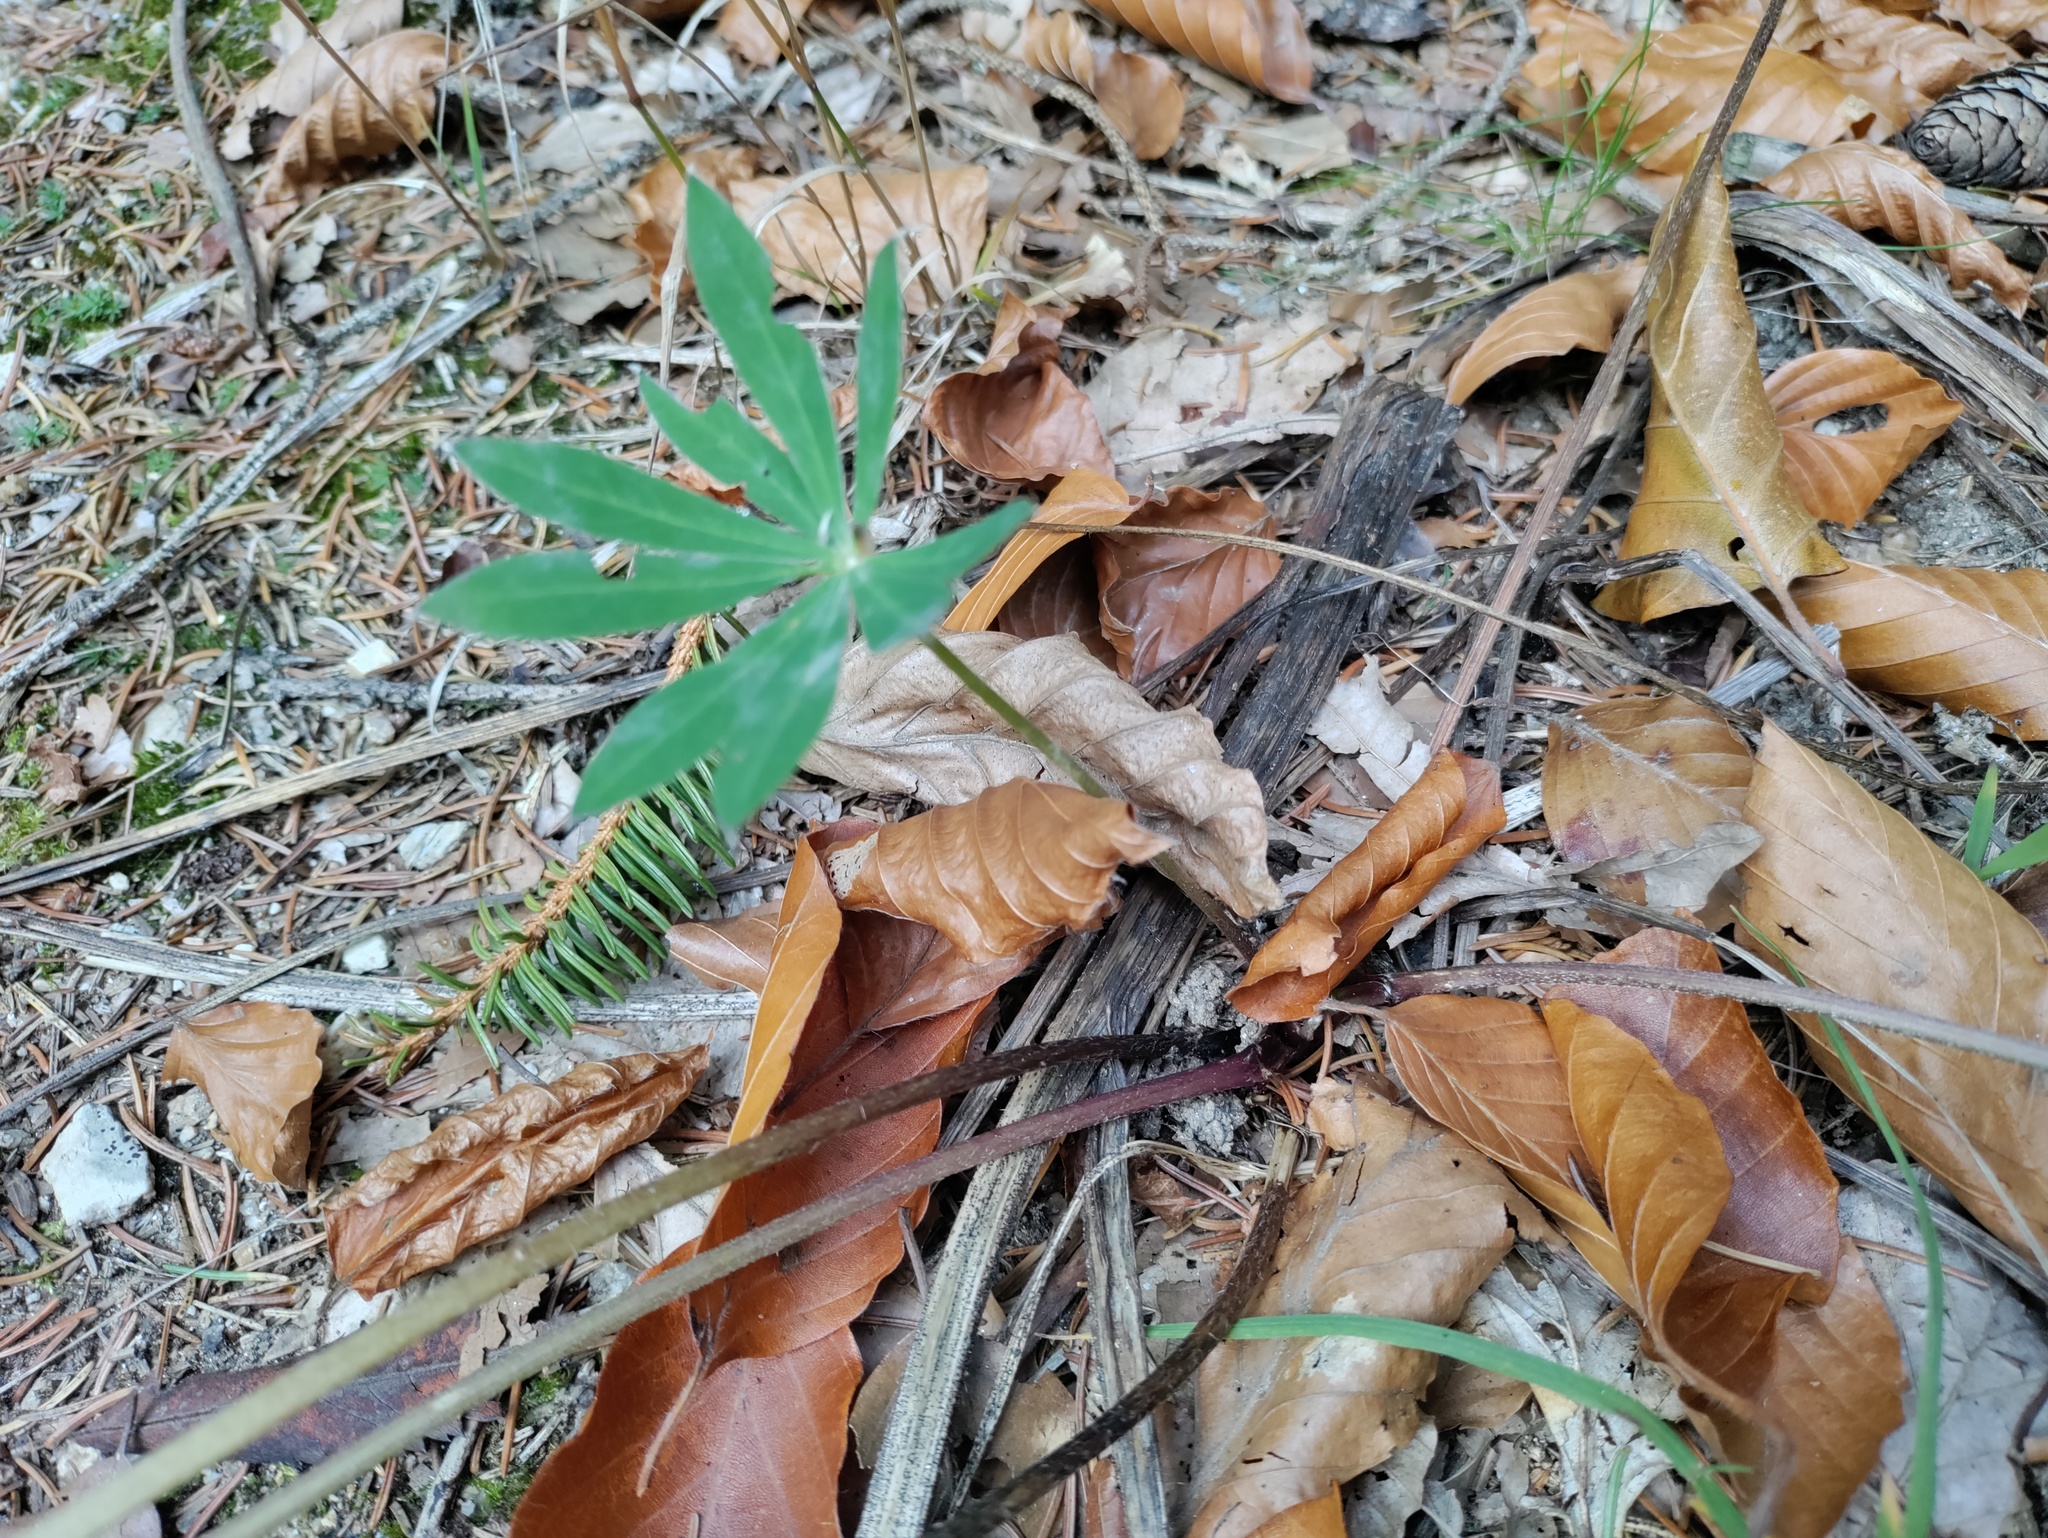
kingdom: Plantae
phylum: Tracheophyta
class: Magnoliopsida
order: Fabales
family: Fabaceae
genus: Lupinus
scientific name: Lupinus polyphyllus
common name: Garden lupin
